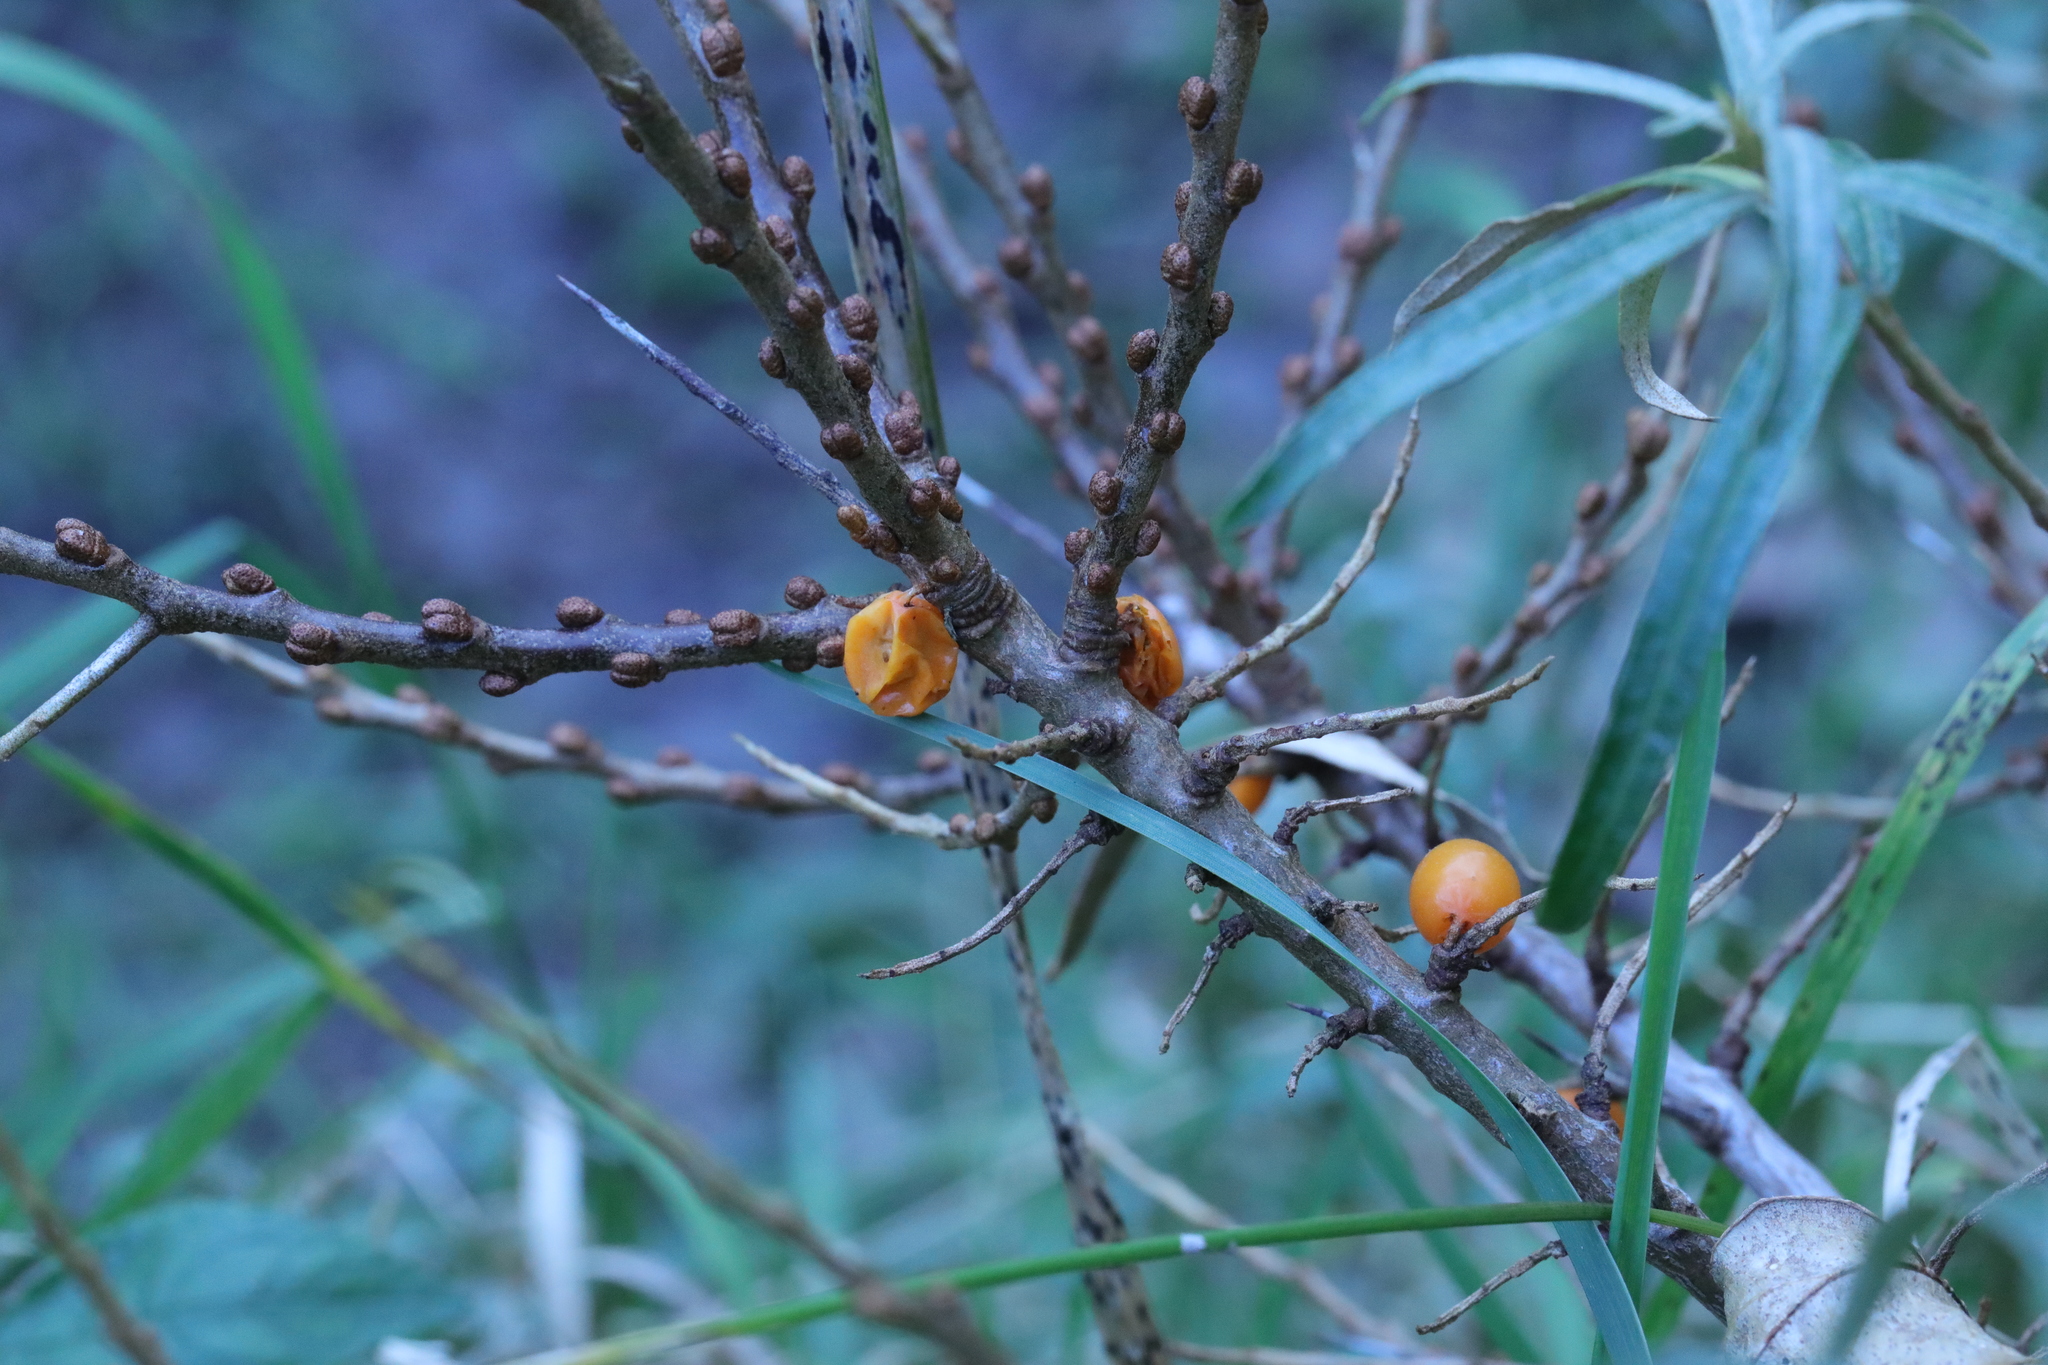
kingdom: Plantae
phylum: Tracheophyta
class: Magnoliopsida
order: Rosales
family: Elaeagnaceae
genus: Hippophae
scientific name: Hippophae rhamnoides
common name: Sea-buckthorn
